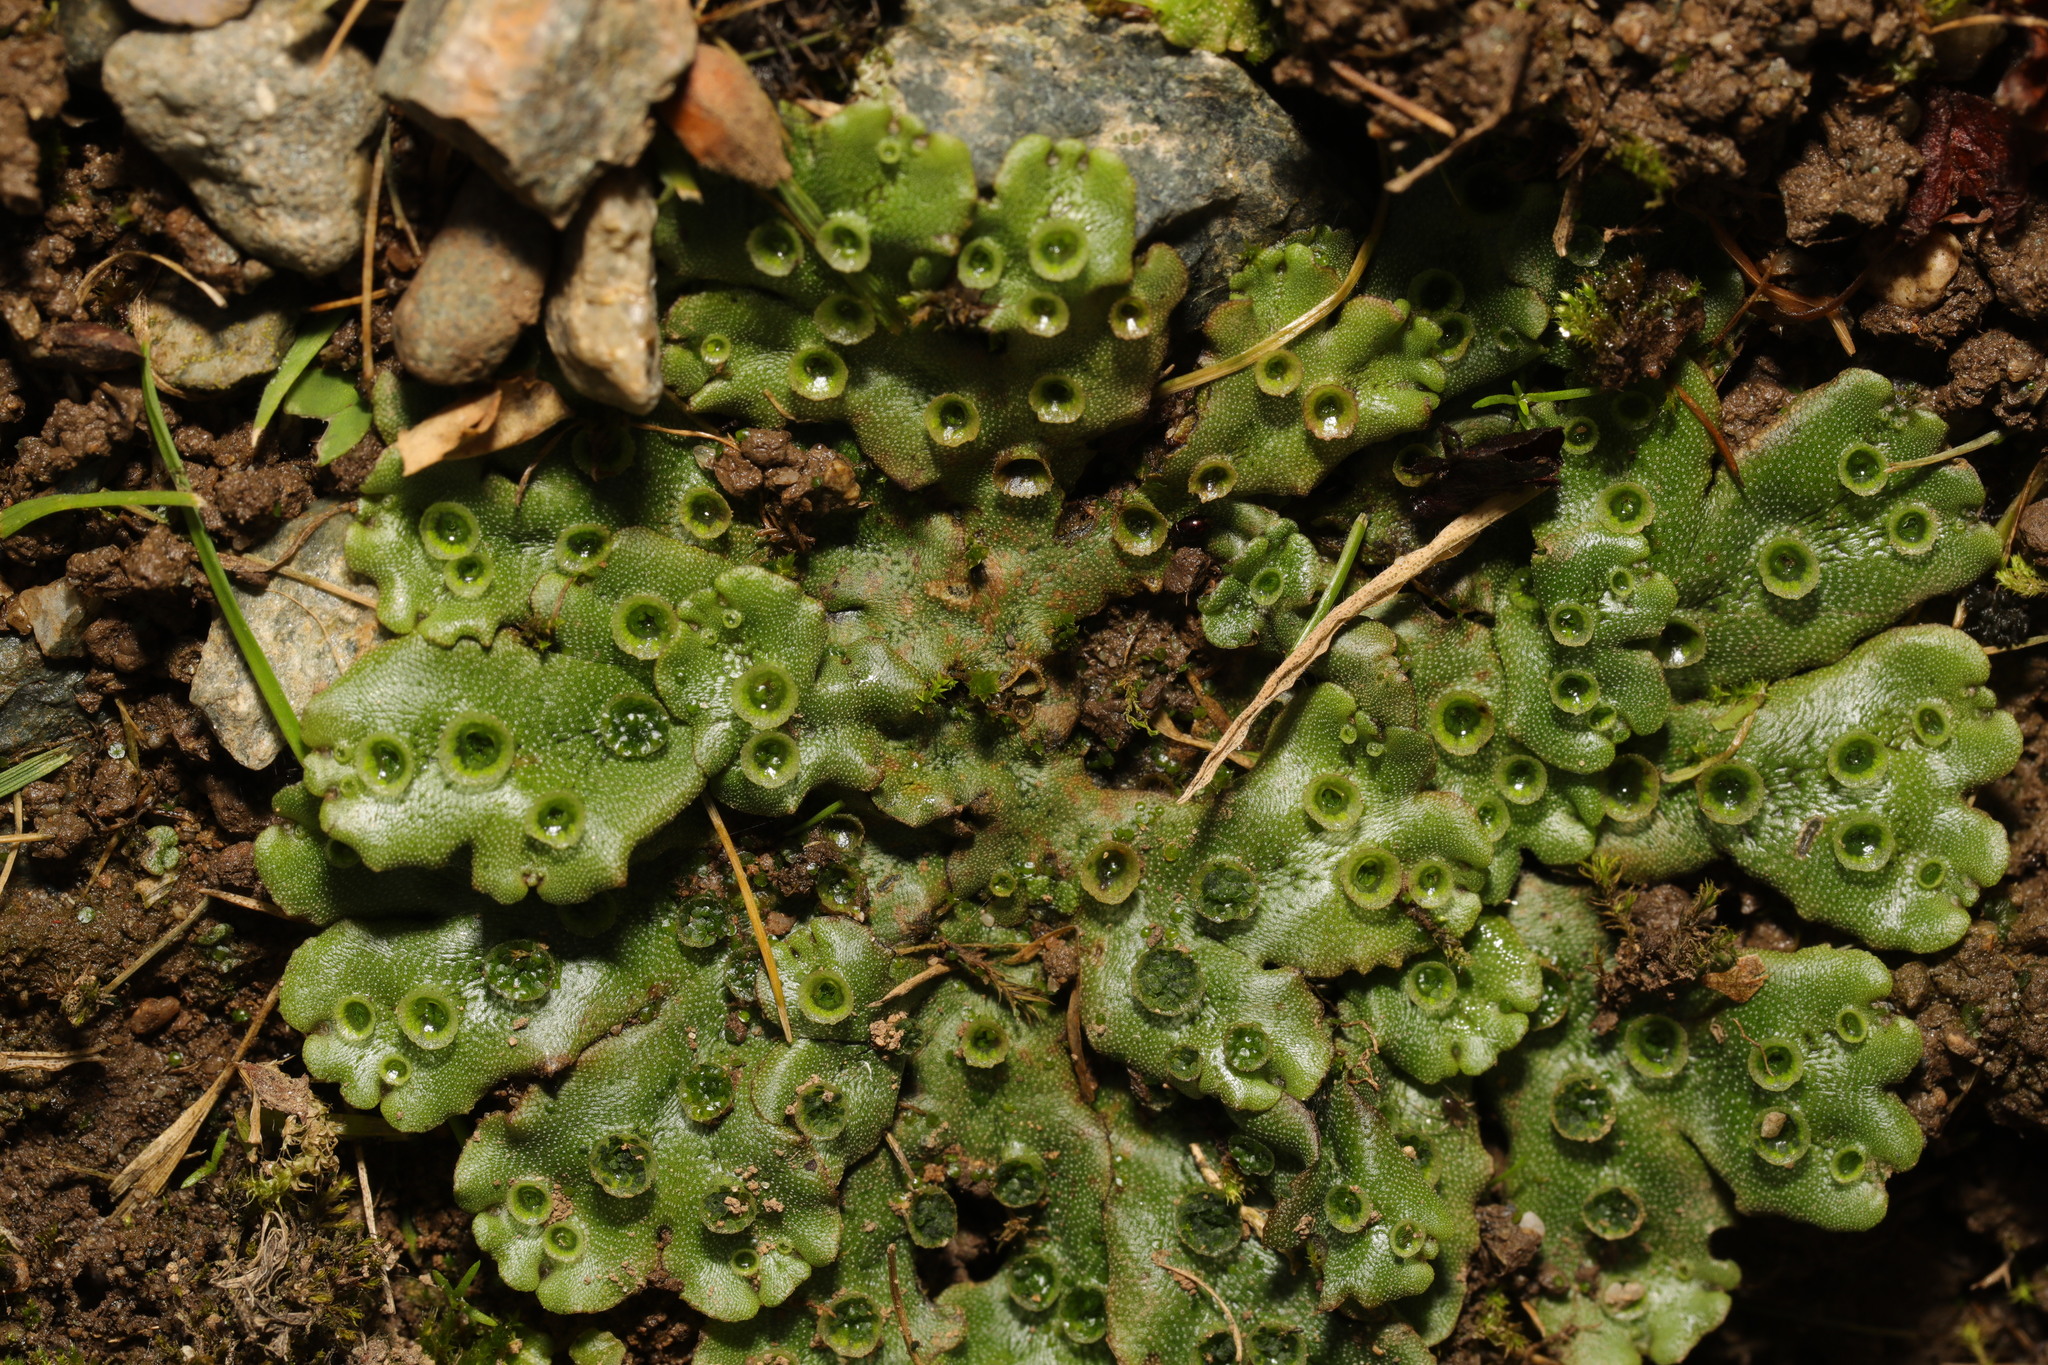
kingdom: Plantae
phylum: Marchantiophyta
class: Marchantiopsida
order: Marchantiales
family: Marchantiaceae
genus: Marchantia
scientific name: Marchantia polymorpha
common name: Common liverwort
